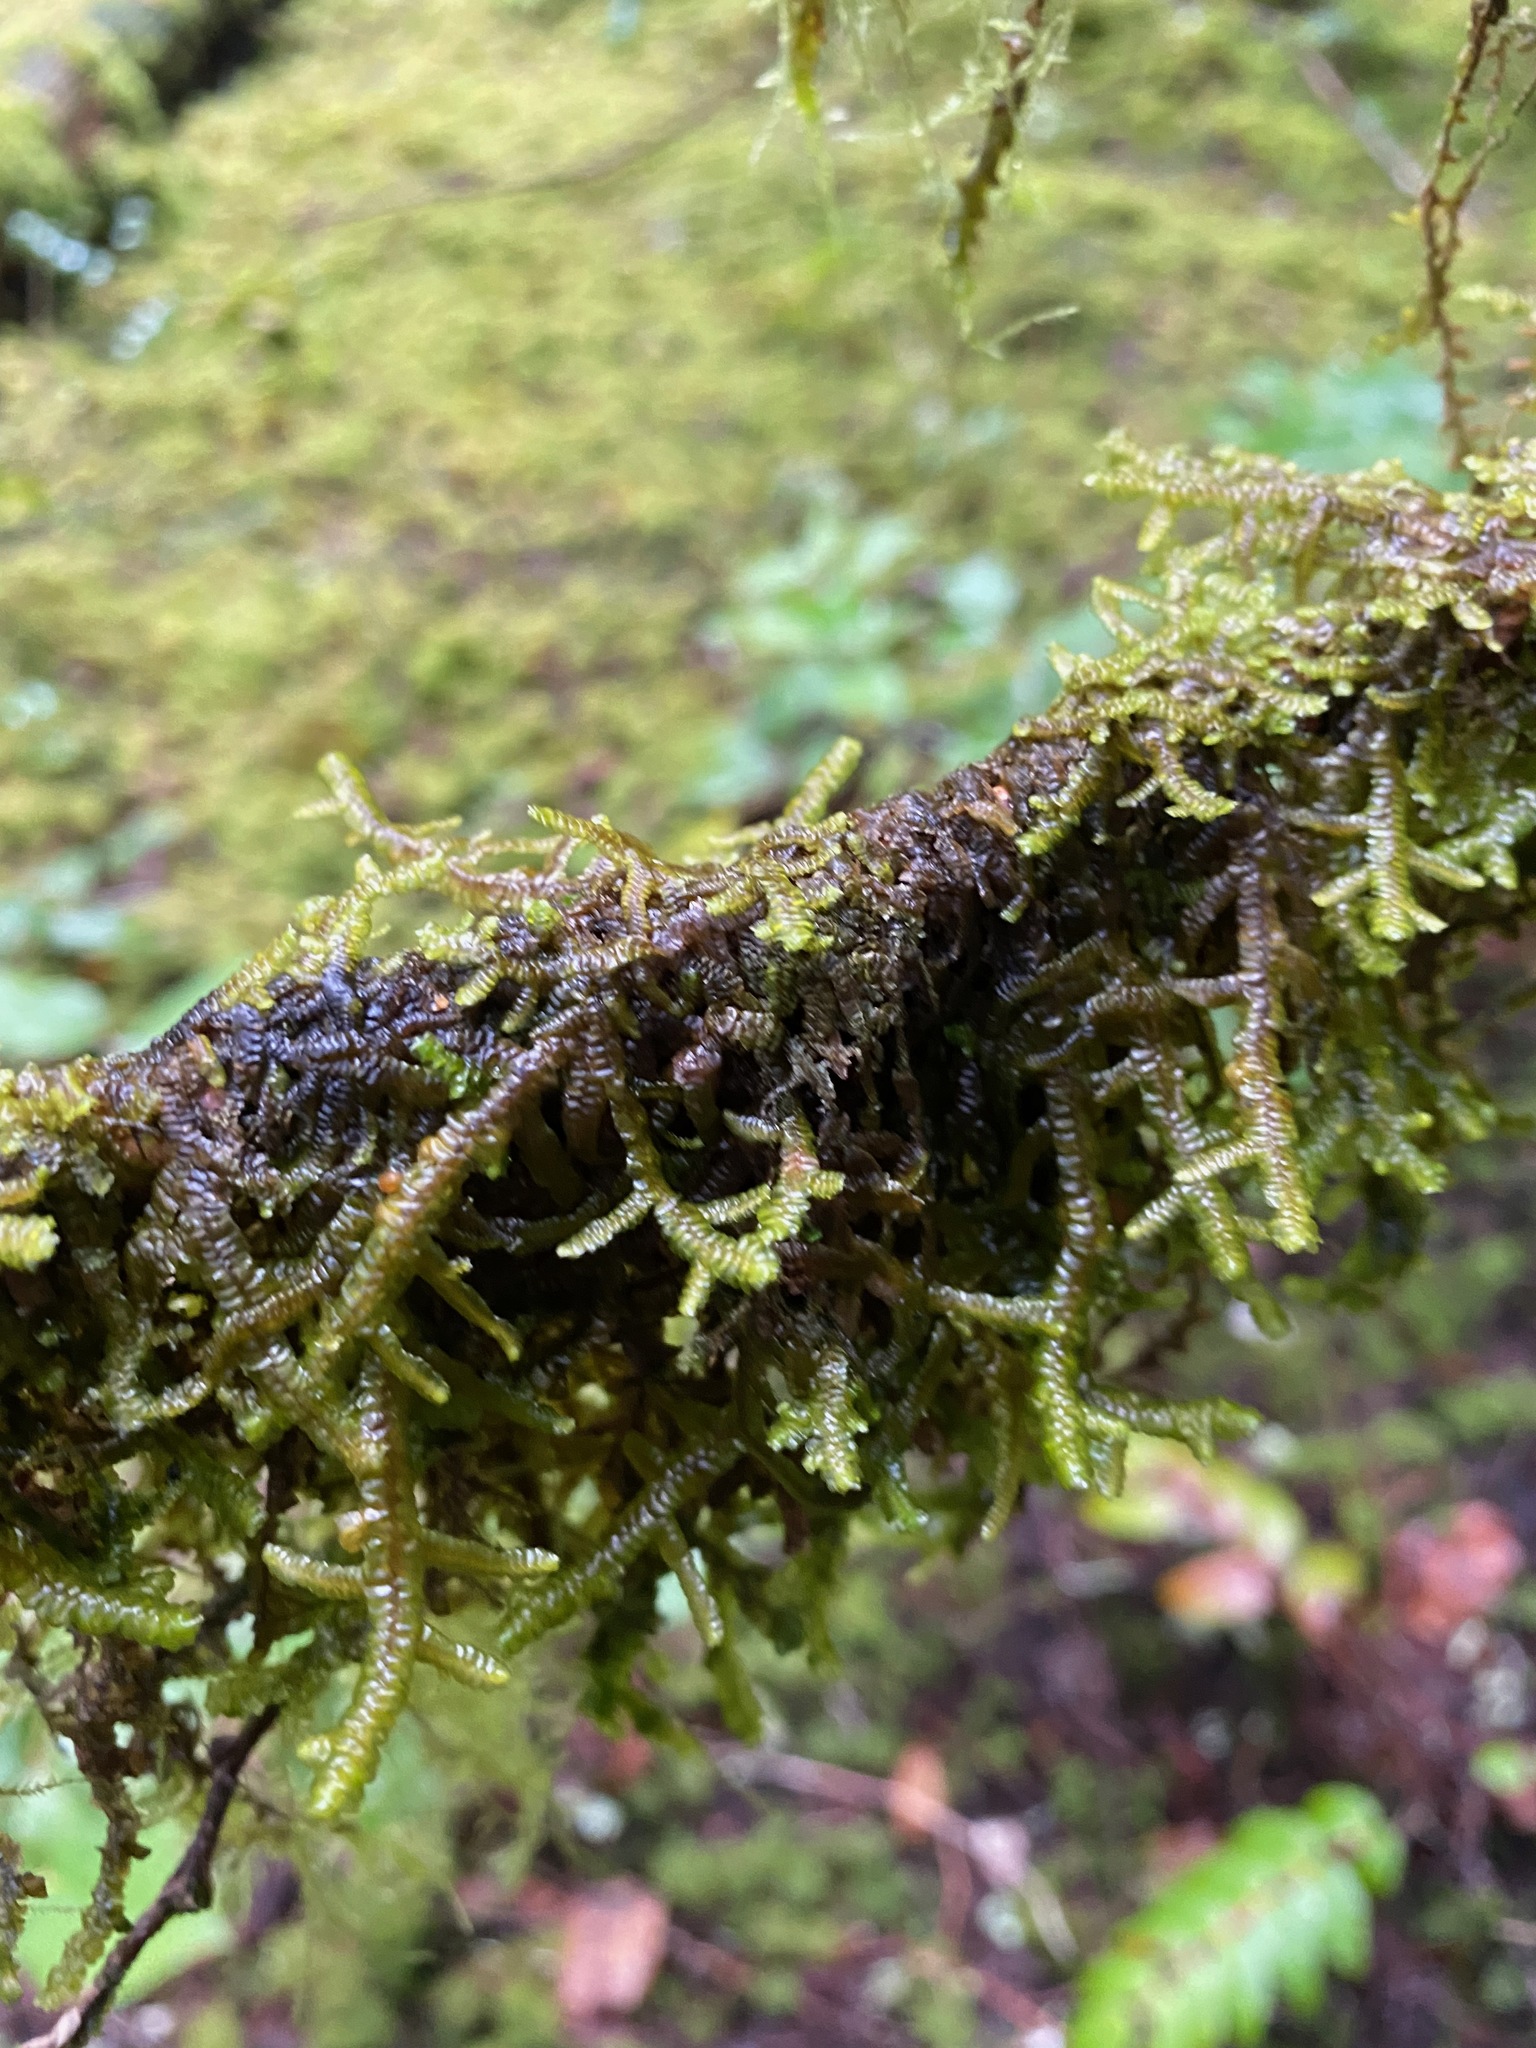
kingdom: Plantae
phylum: Marchantiophyta
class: Jungermanniopsida
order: Porellales
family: Porellaceae
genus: Porella
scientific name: Porella navicularis
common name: Tree ruffle liverwort
